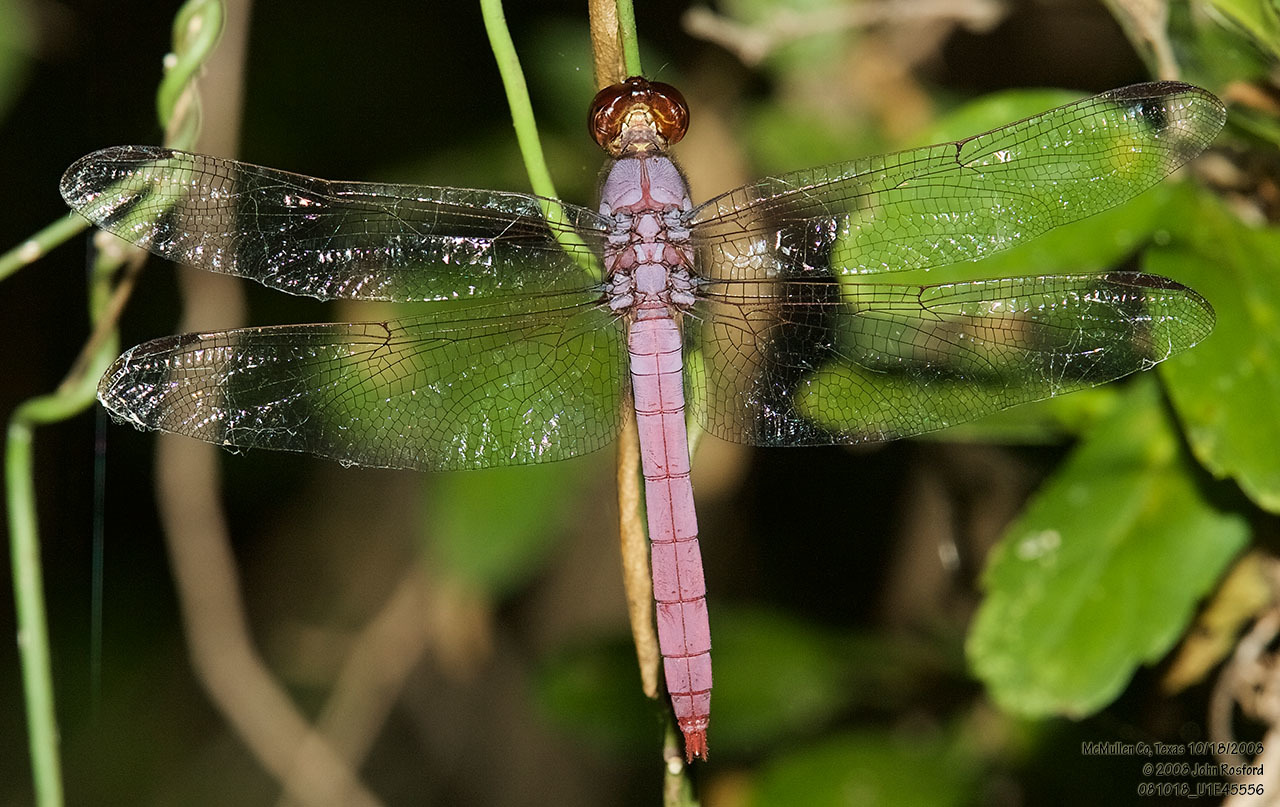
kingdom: Animalia
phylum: Arthropoda
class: Insecta
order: Odonata
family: Libellulidae
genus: Orthemis
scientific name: Orthemis ferruginea
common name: Roseate skimmer
